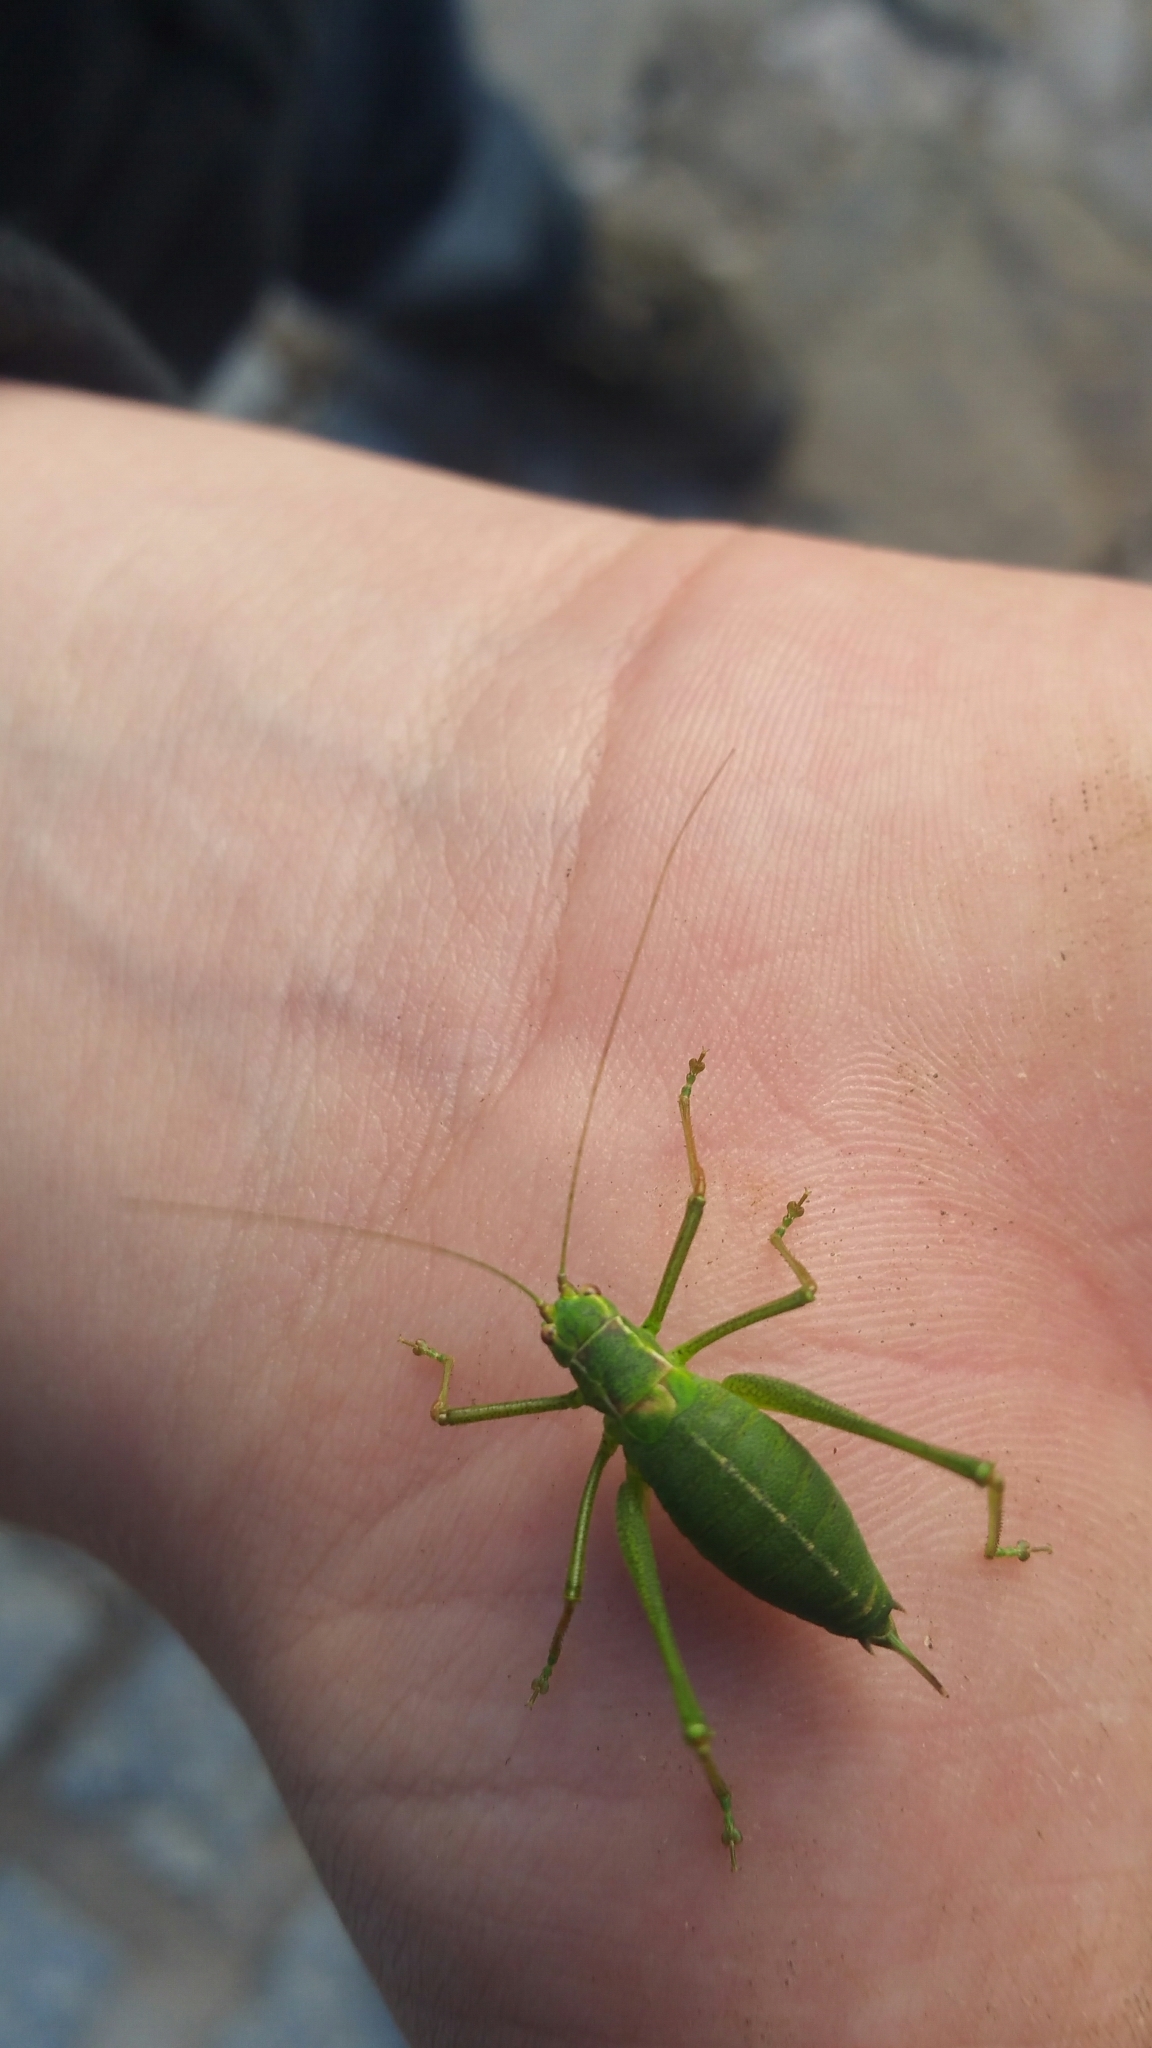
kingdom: Animalia
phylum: Arthropoda
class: Insecta
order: Orthoptera
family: Tettigoniidae
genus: Leptophyes
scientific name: Leptophyes punctatissima
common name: Speckled bush-cricket
